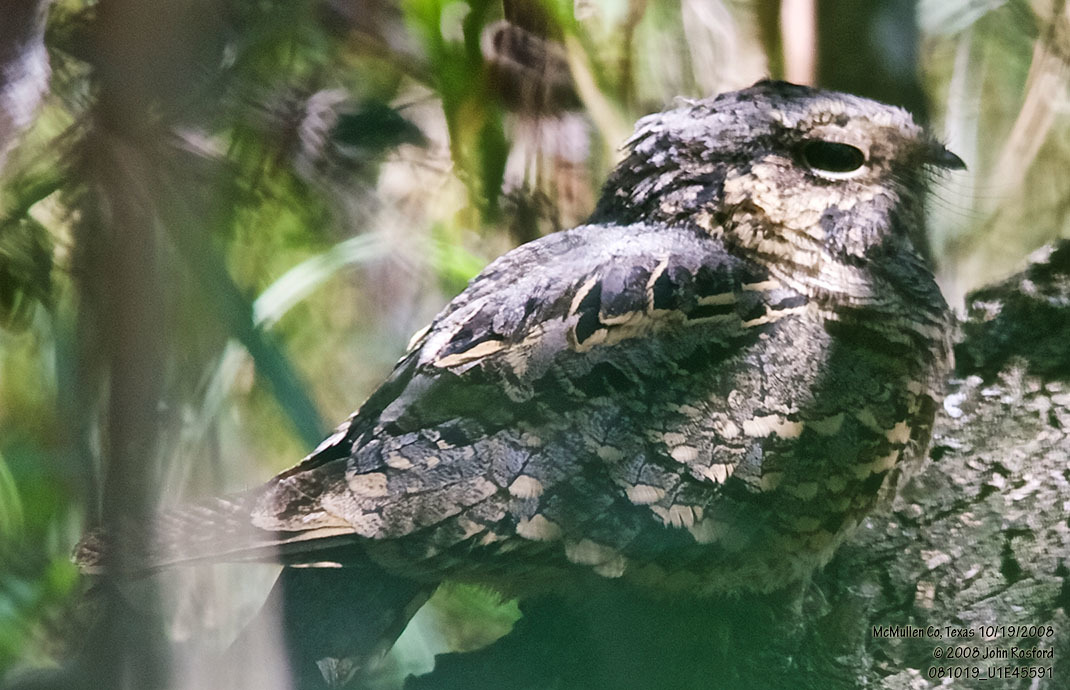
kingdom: Animalia
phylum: Chordata
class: Aves
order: Caprimulgiformes
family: Caprimulgidae
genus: Nyctidromus
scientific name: Nyctidromus albicollis
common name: Pauraque
